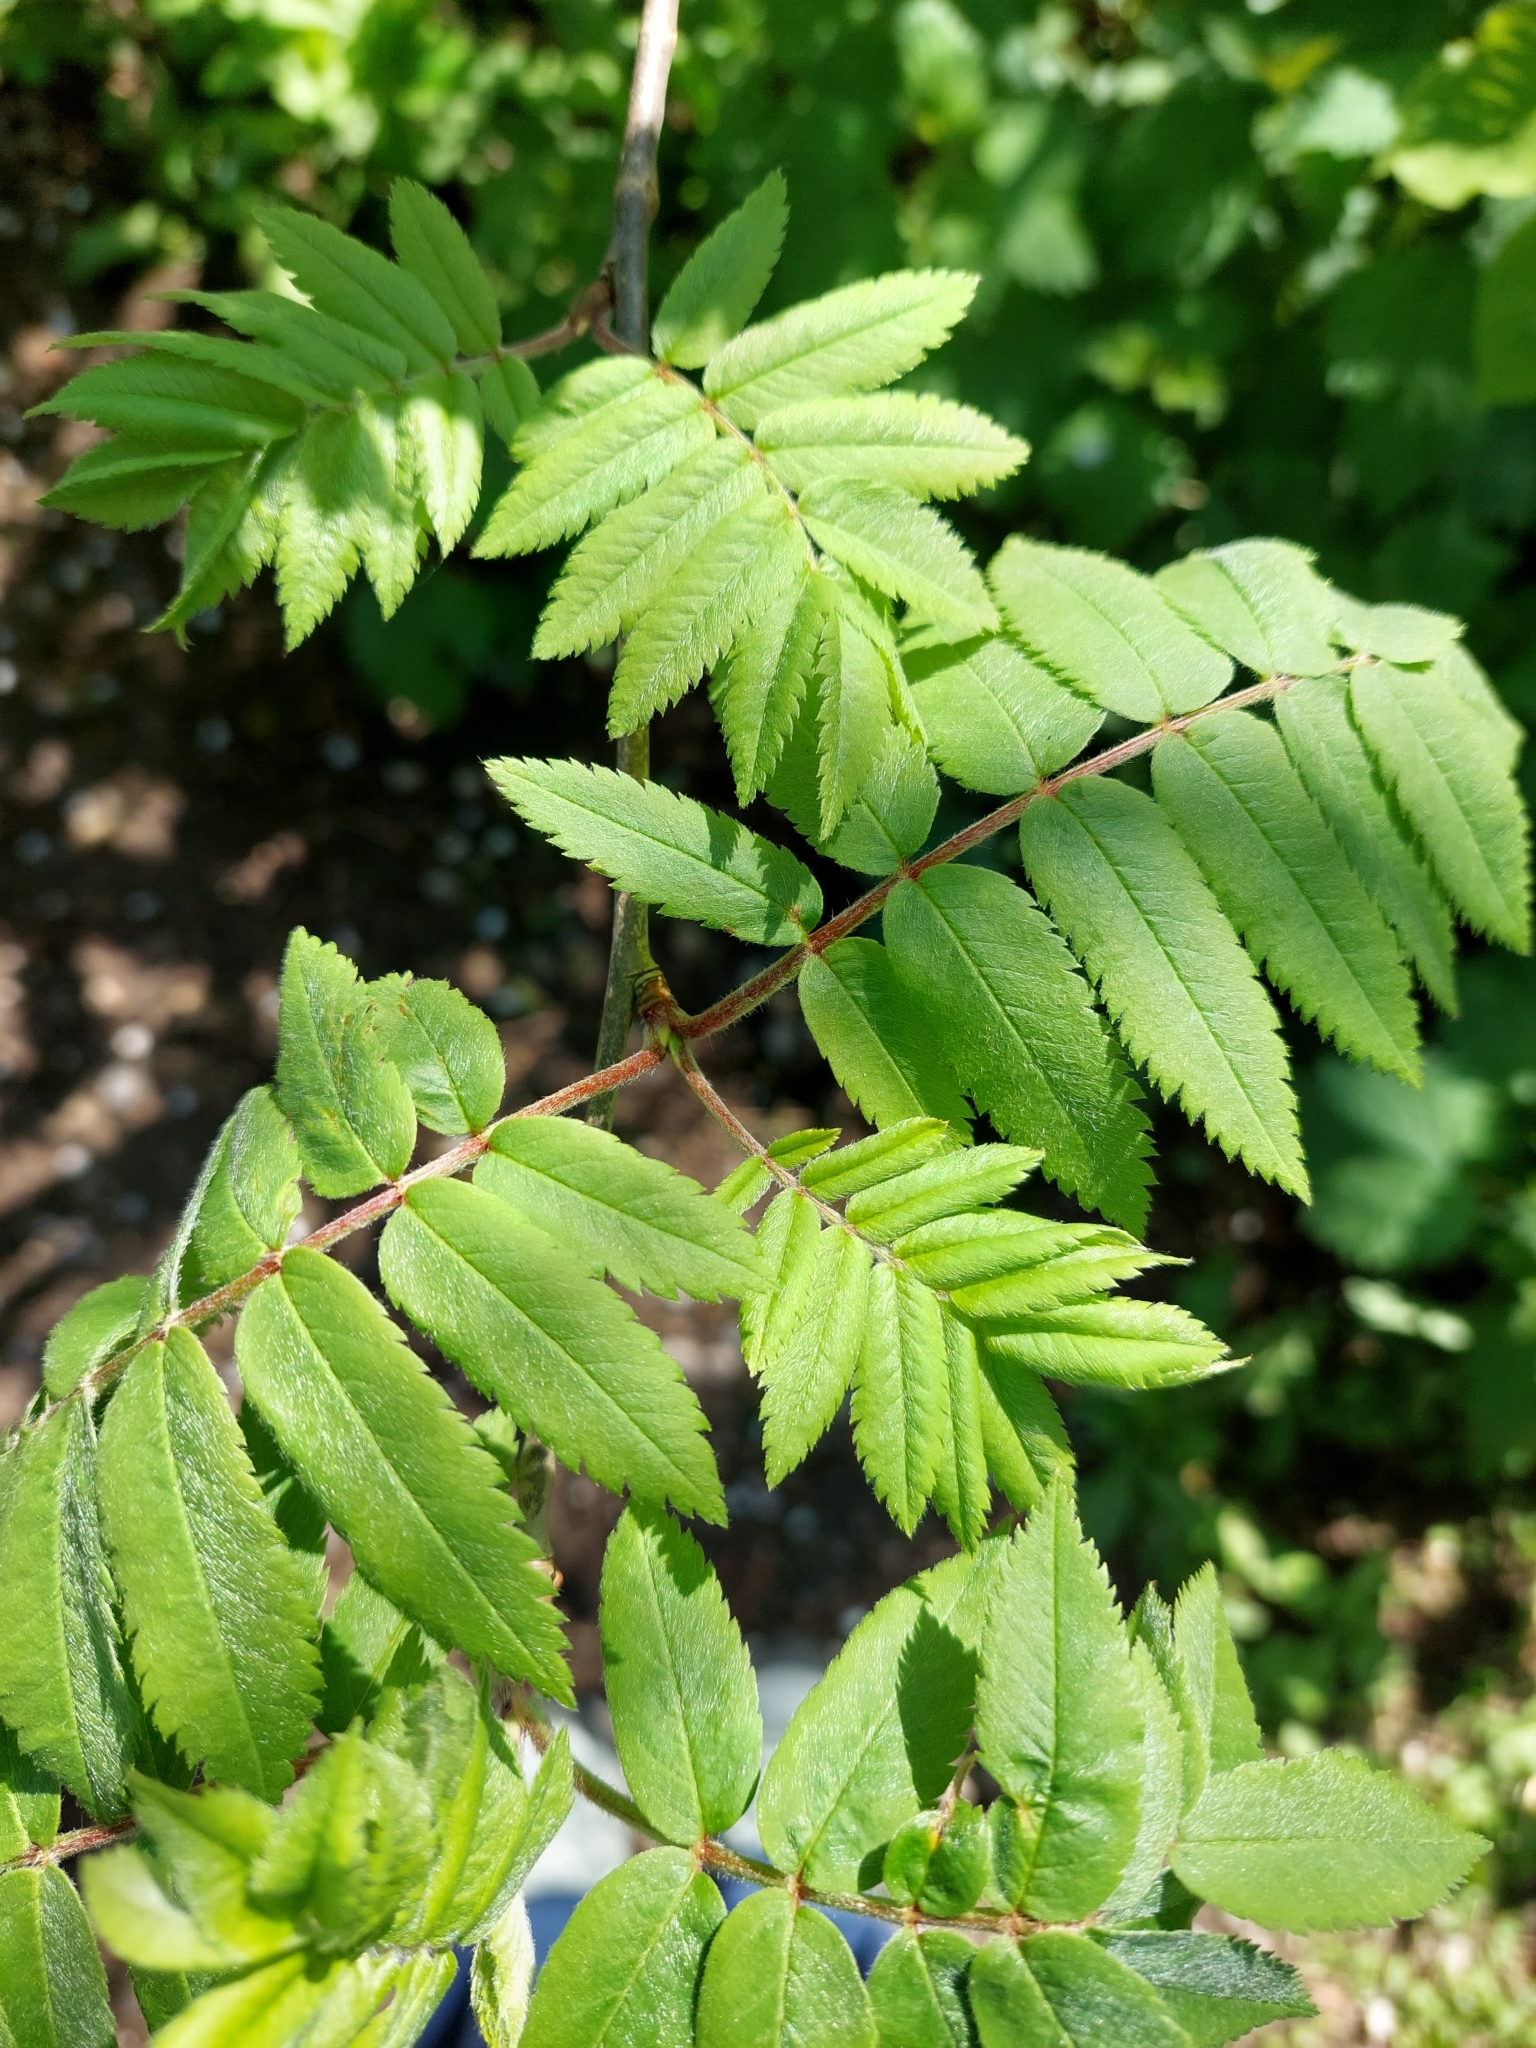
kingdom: Plantae
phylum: Tracheophyta
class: Magnoliopsida
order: Rosales
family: Rosaceae
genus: Sorbus
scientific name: Sorbus aucuparia
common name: Rowan
